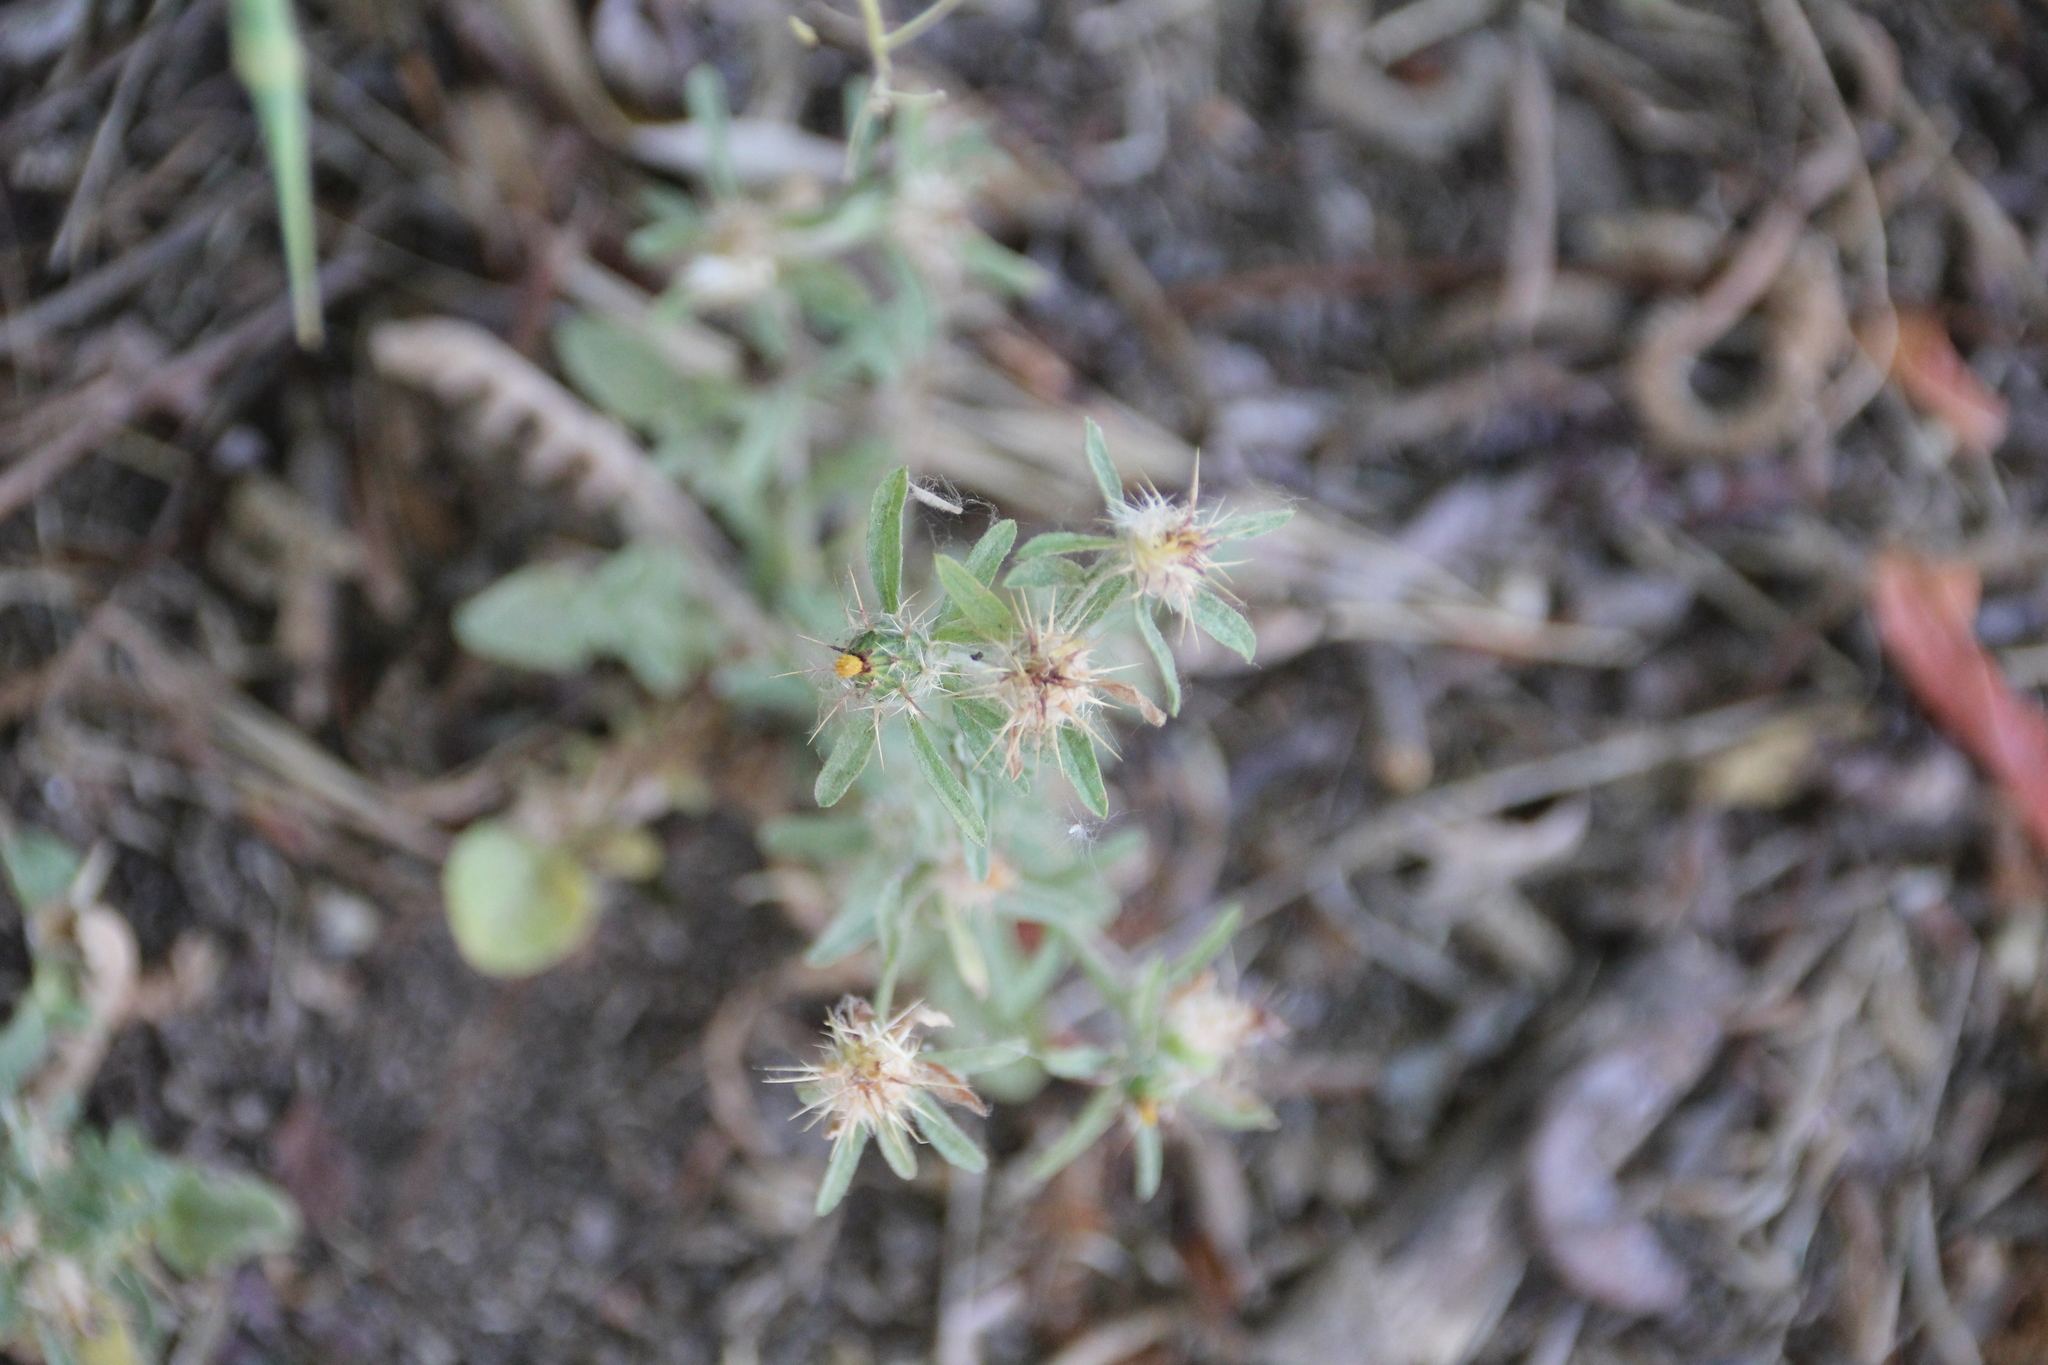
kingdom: Plantae
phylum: Tracheophyta
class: Magnoliopsida
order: Asterales
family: Asteraceae
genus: Centaurea
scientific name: Centaurea melitensis
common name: Maltese star-thistle
